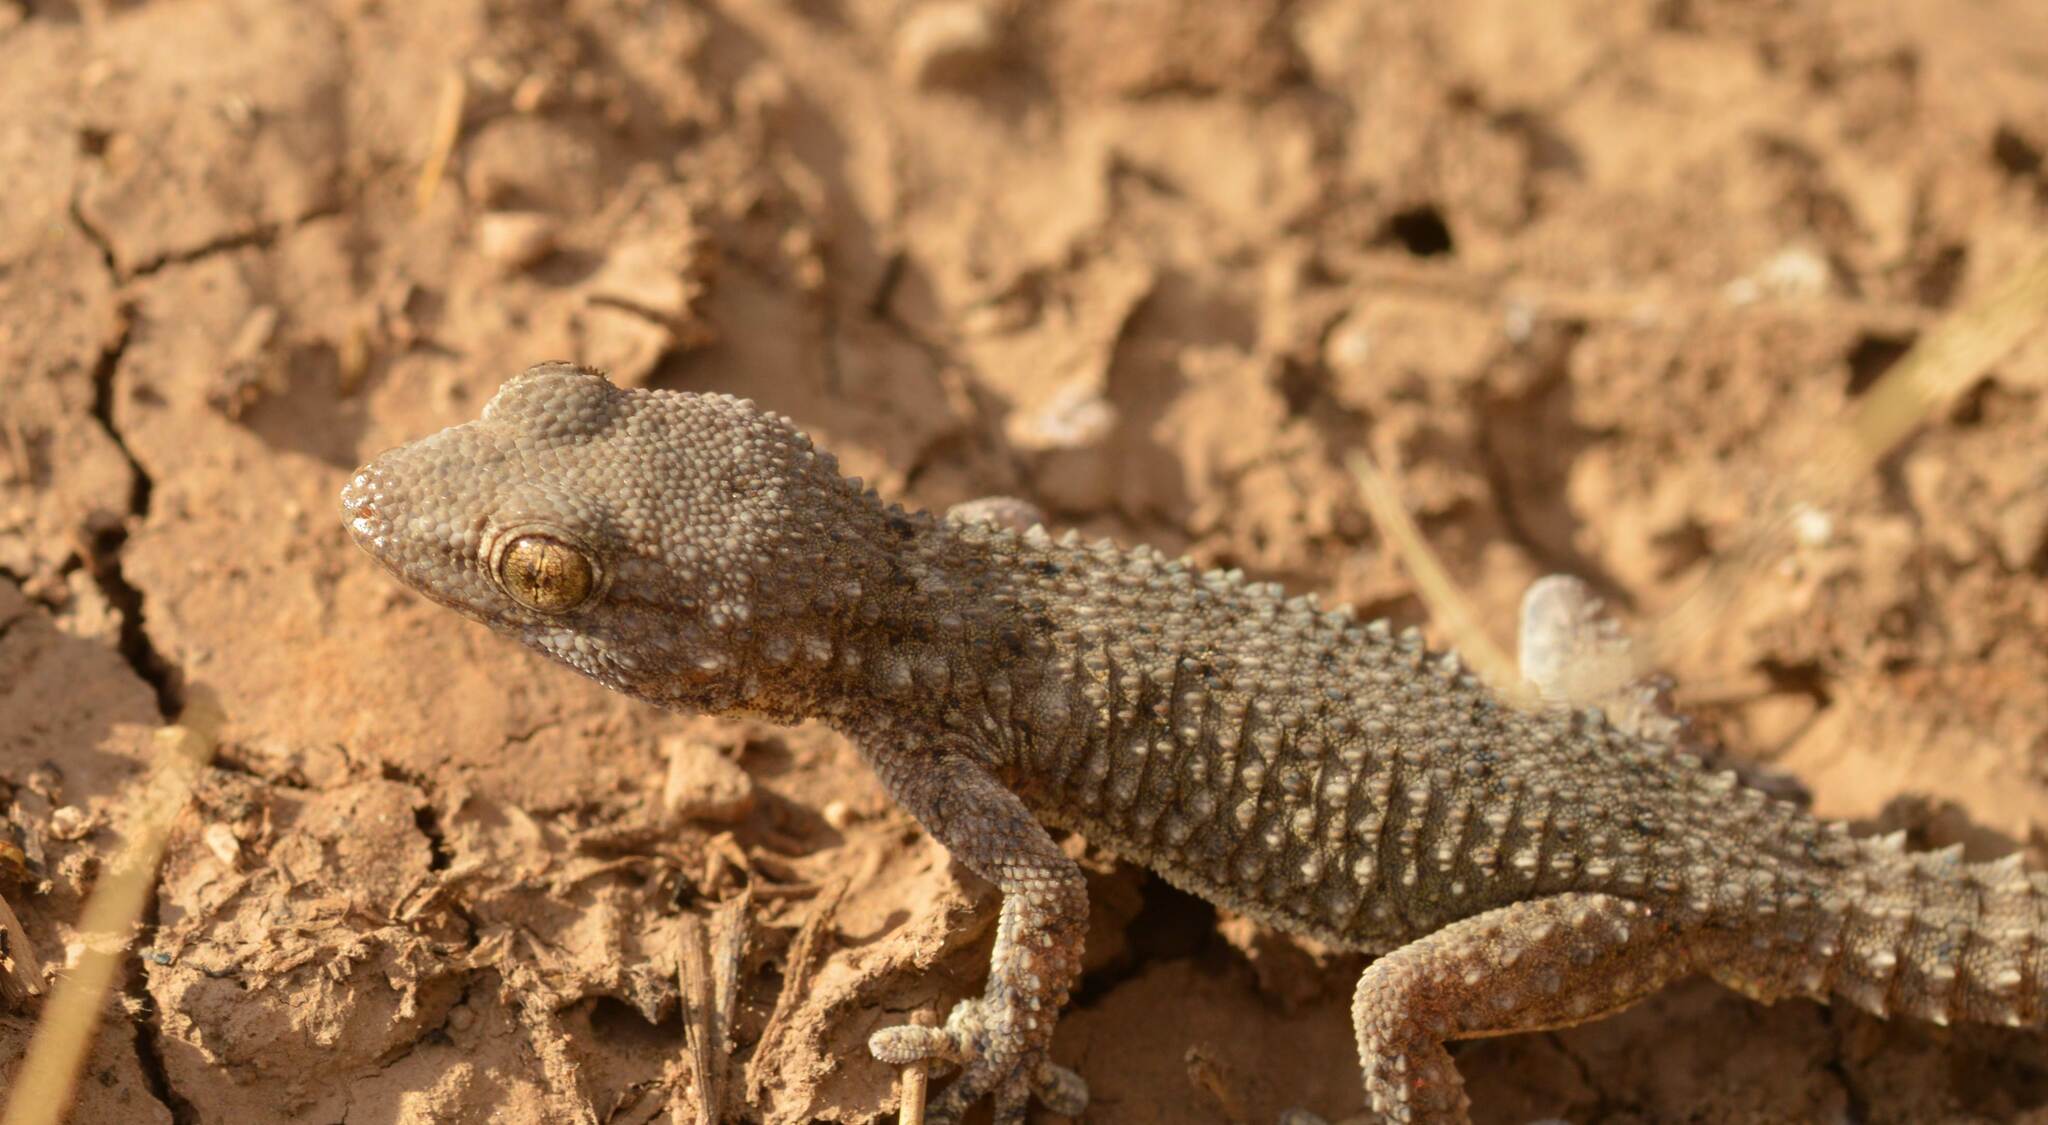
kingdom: Animalia
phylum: Chordata
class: Squamata
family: Phyllodactylidae
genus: Tarentola
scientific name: Tarentola mauritanica
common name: Moorish gecko
